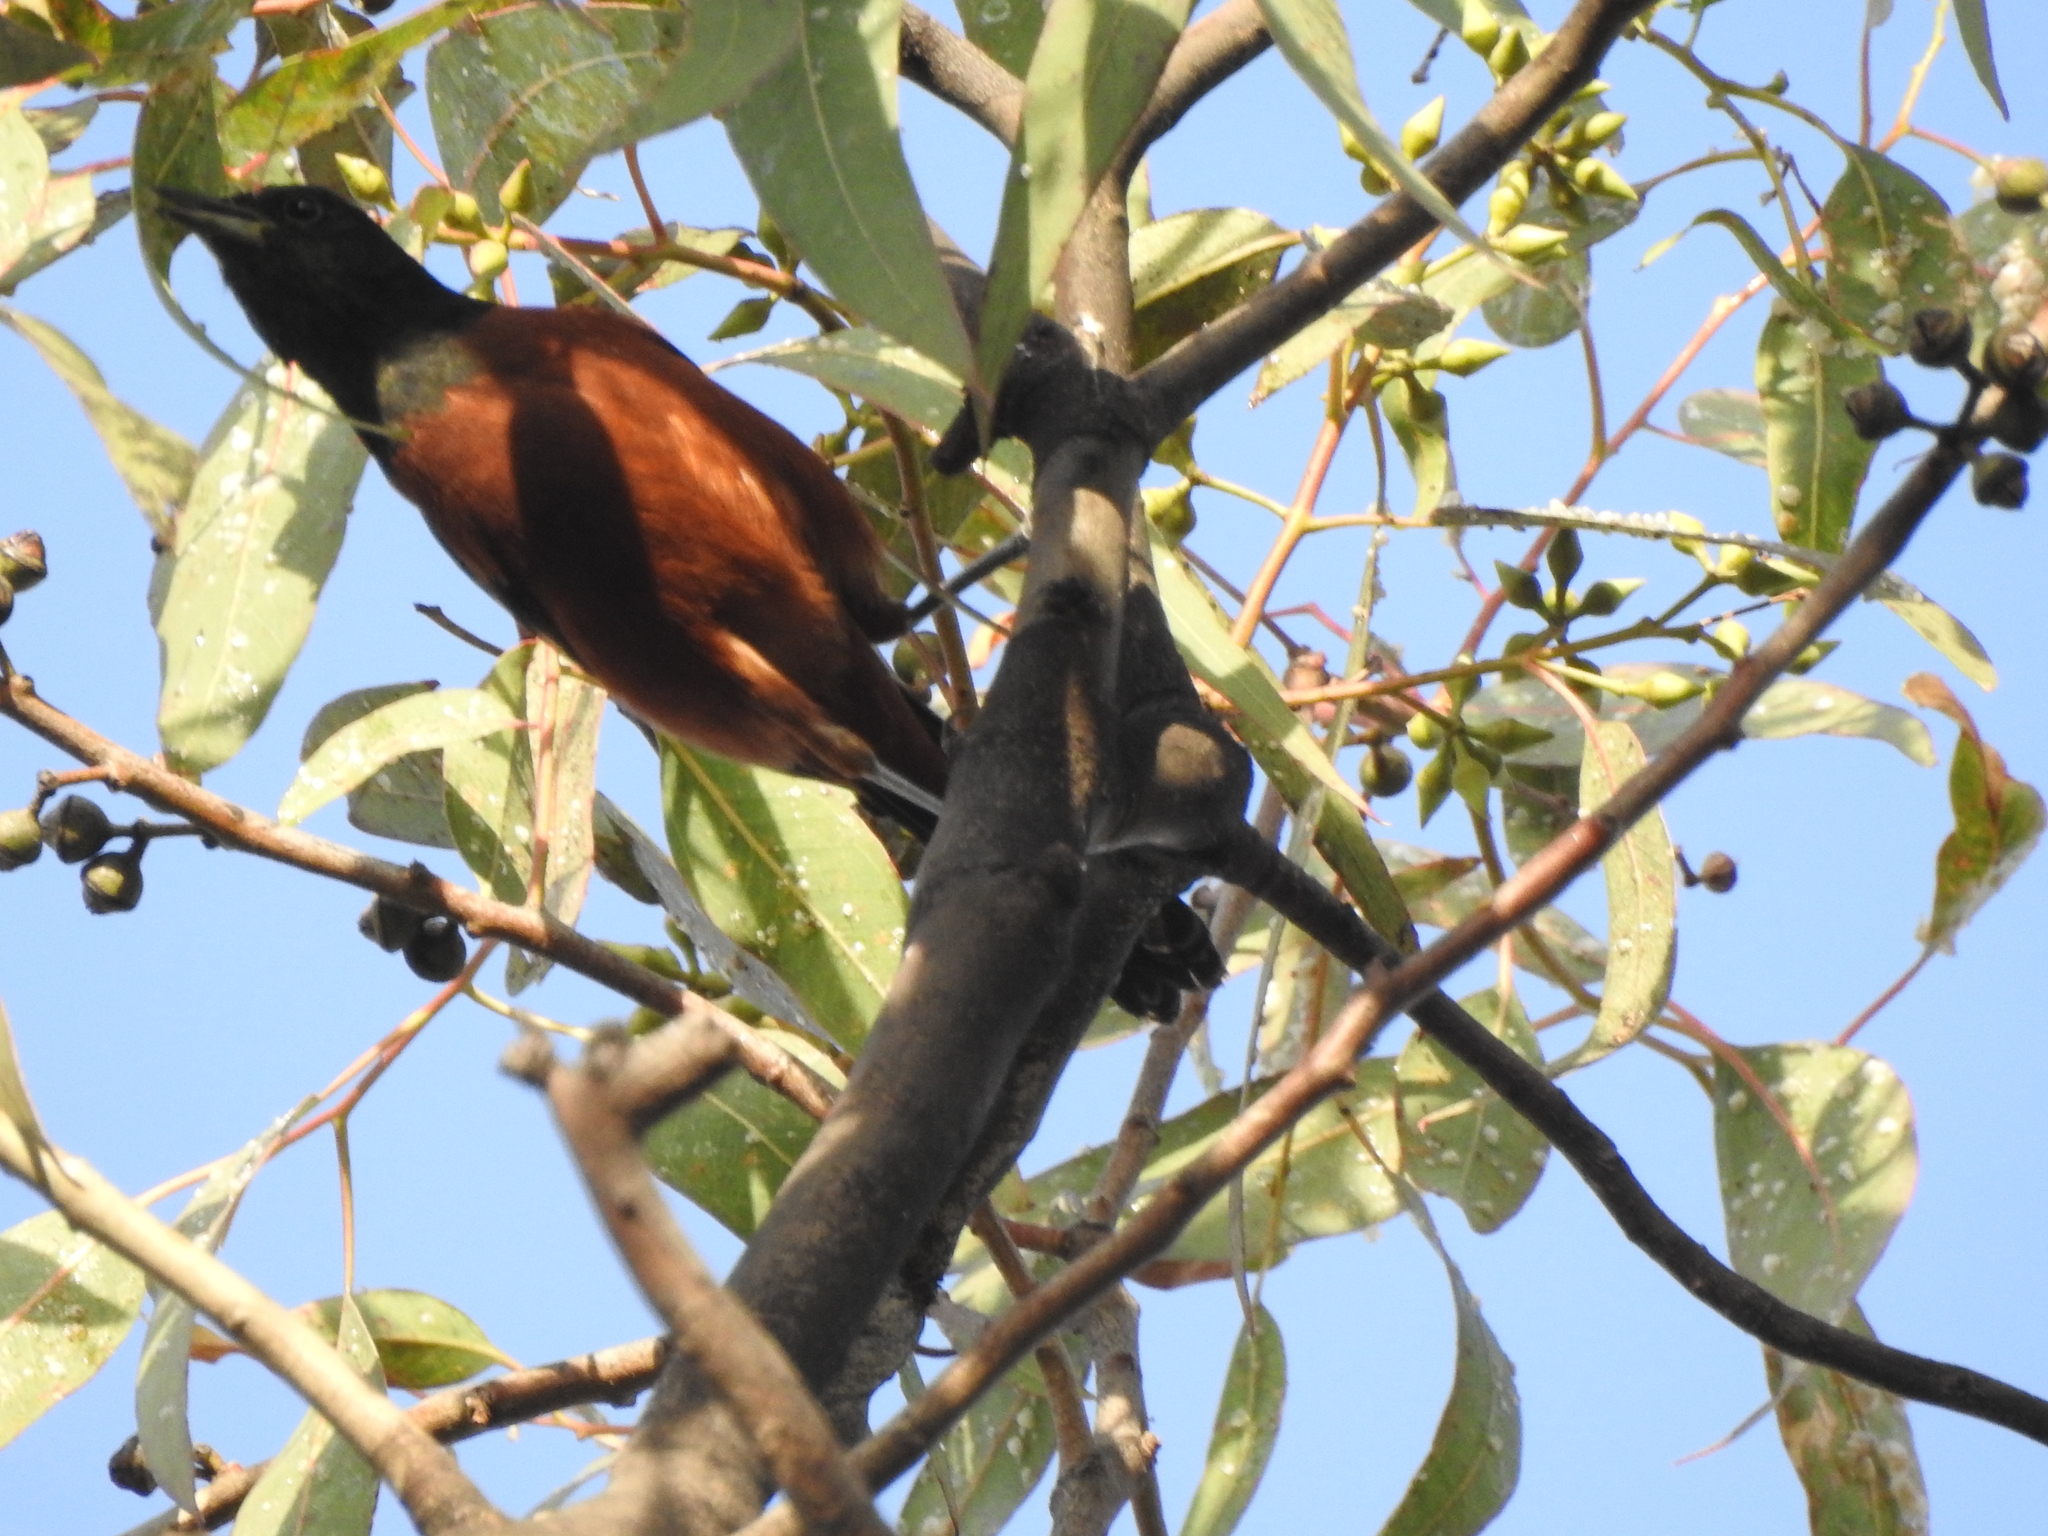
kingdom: Animalia
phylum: Chordata
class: Aves
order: Passeriformes
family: Icteridae
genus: Icterus
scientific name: Icterus spurius
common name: Orchard oriole
